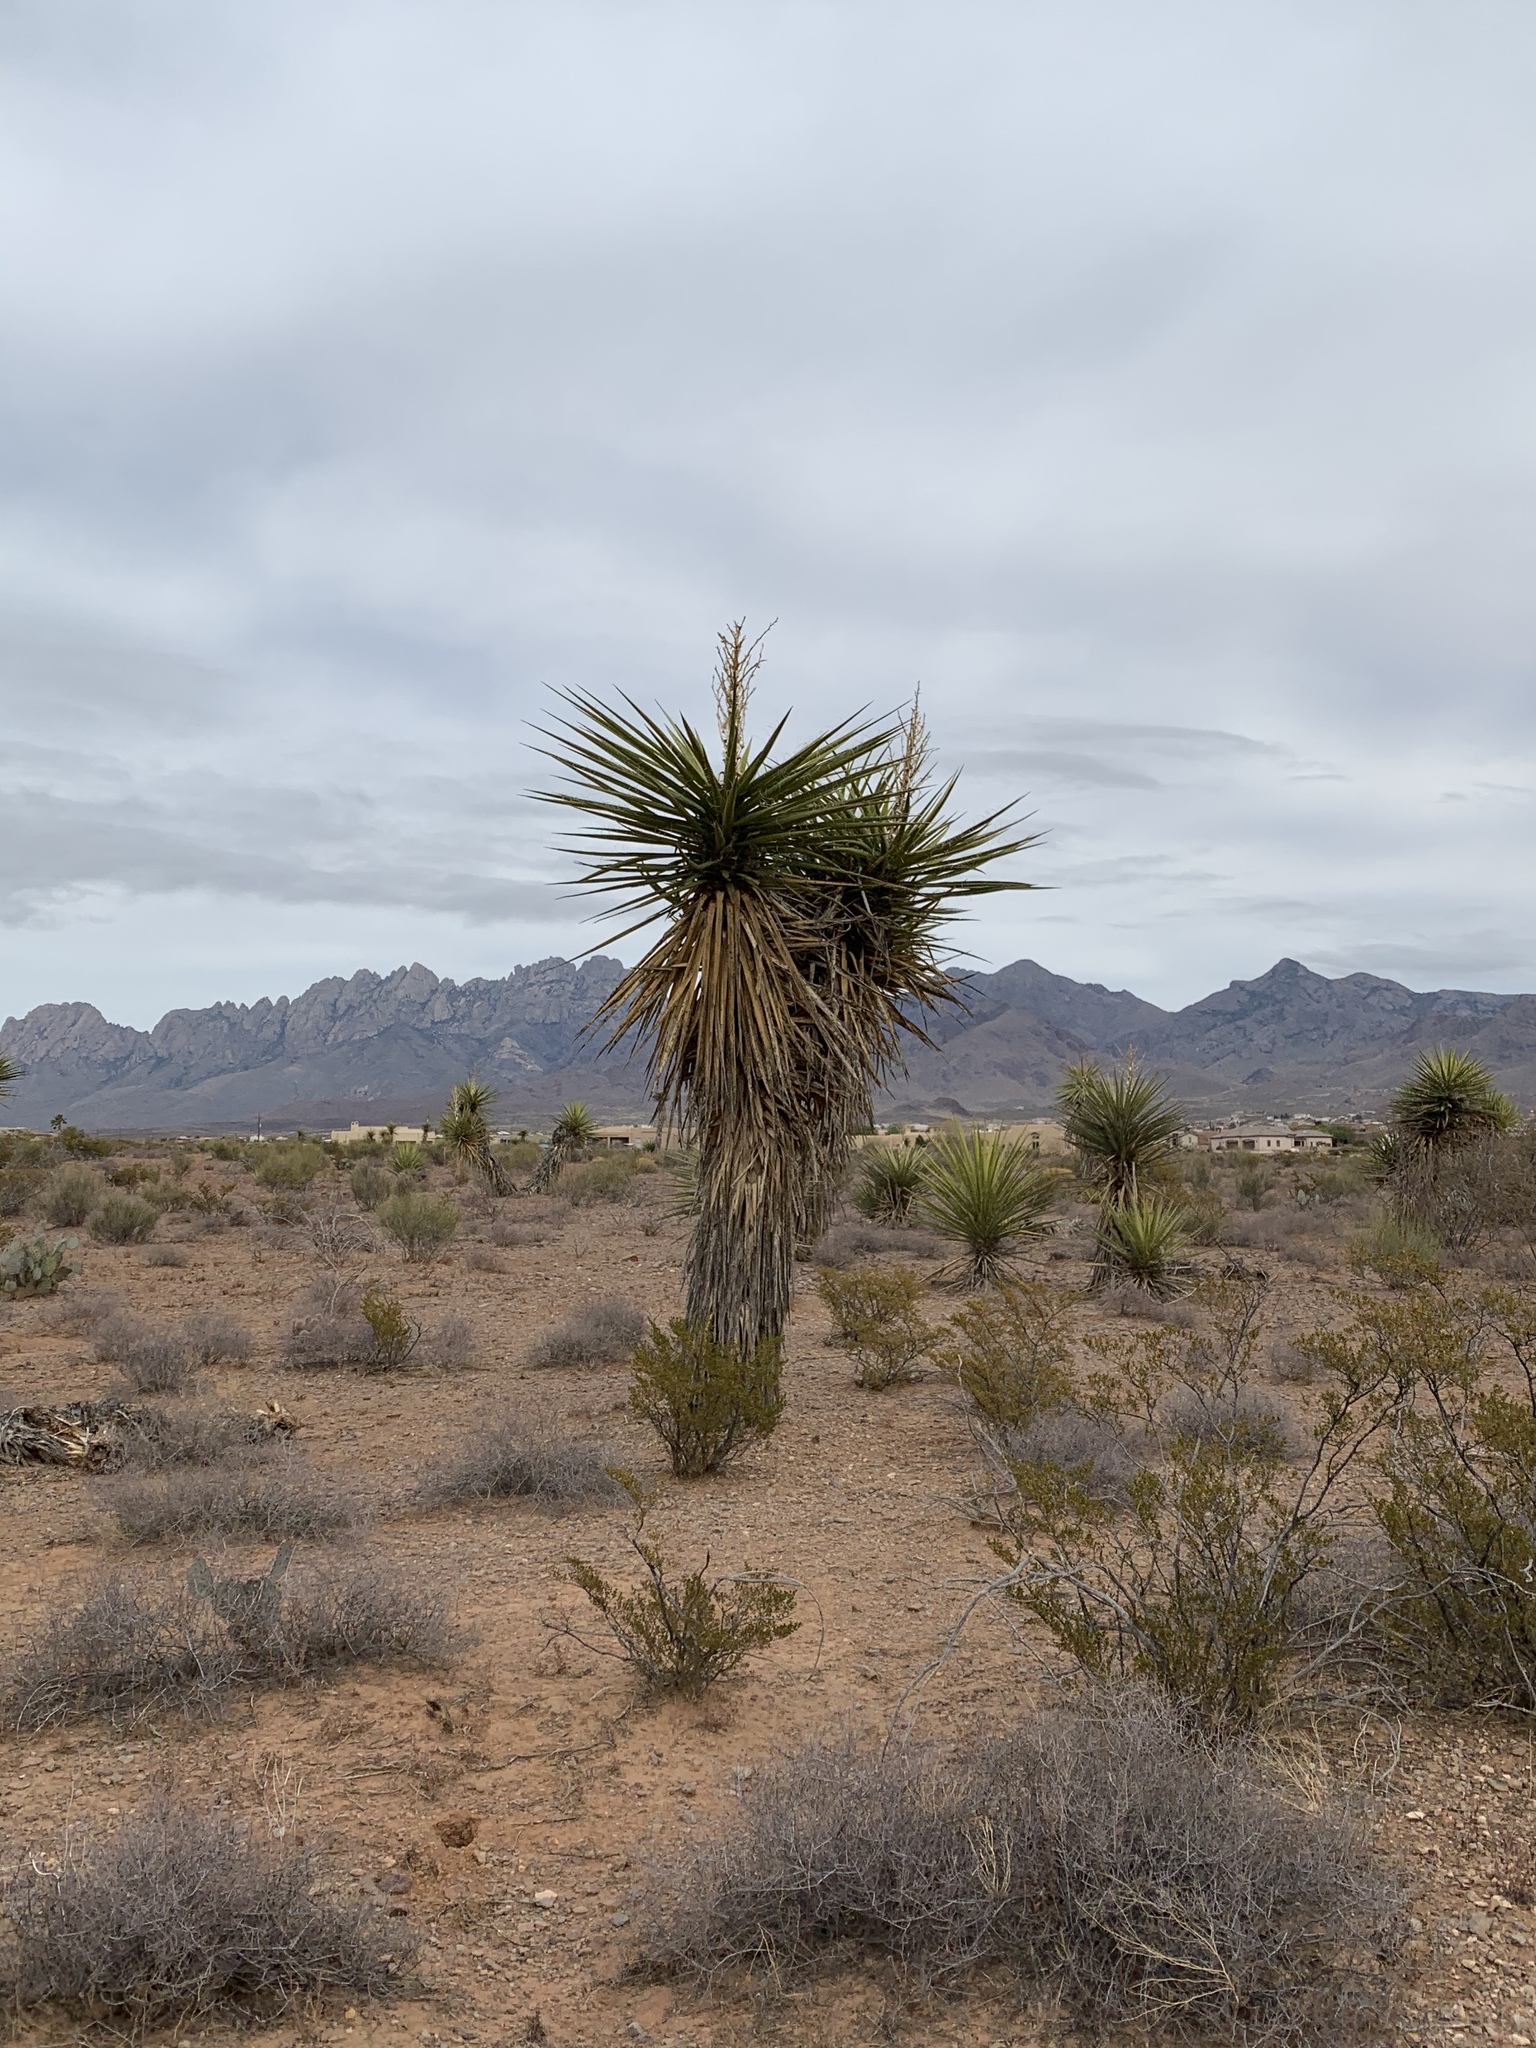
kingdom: Plantae
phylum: Tracheophyta
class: Liliopsida
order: Asparagales
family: Asparagaceae
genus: Yucca
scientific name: Yucca treculiana
